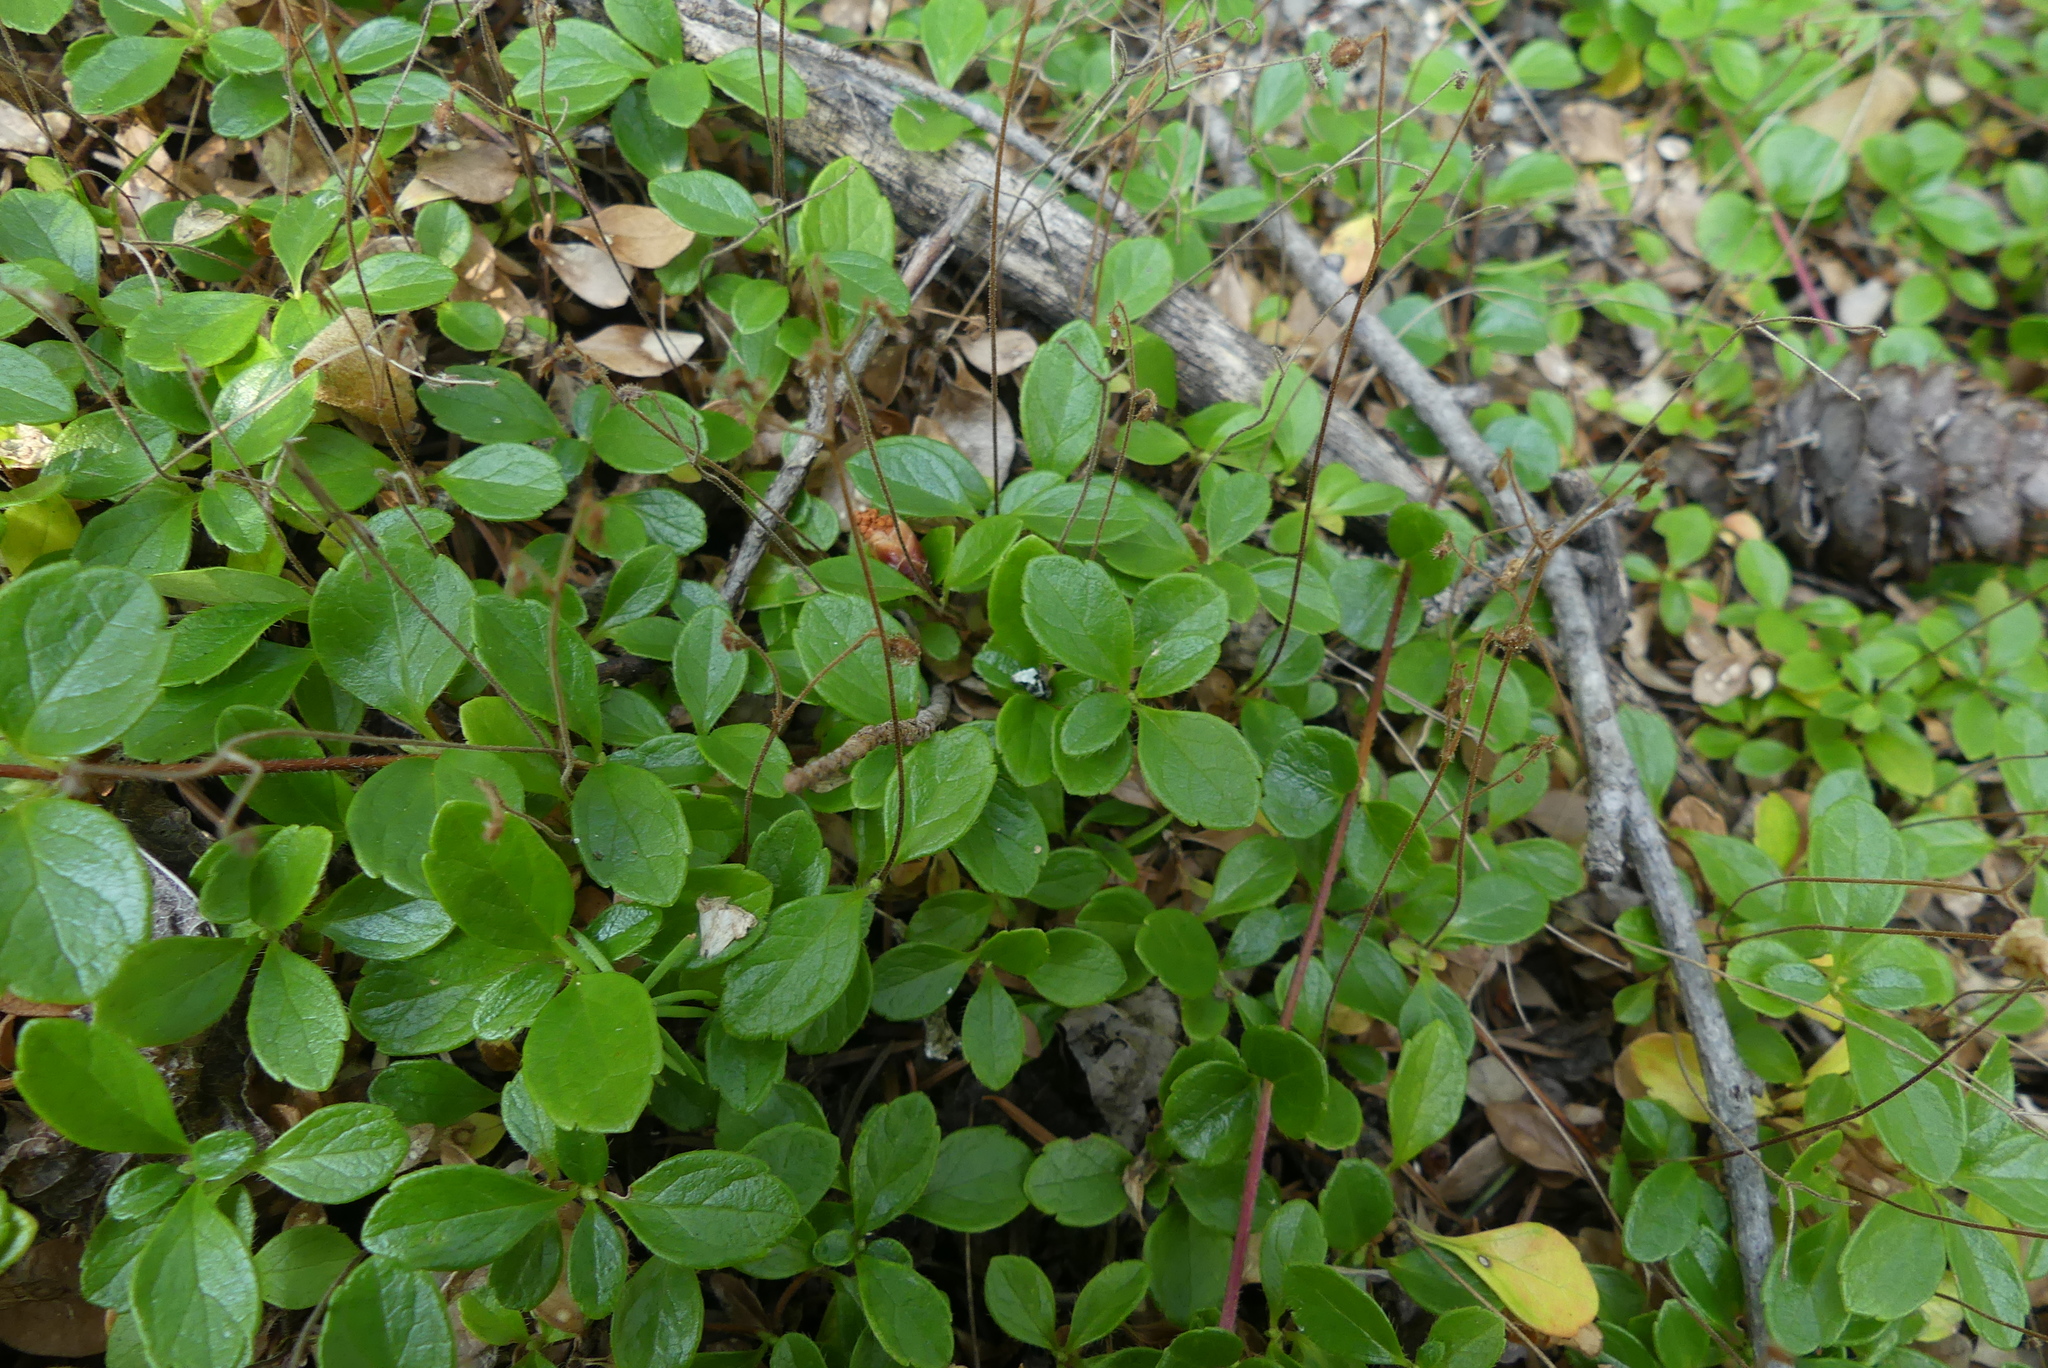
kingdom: Plantae
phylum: Tracheophyta
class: Magnoliopsida
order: Dipsacales
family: Caprifoliaceae
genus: Linnaea
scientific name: Linnaea borealis
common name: Twinflower
